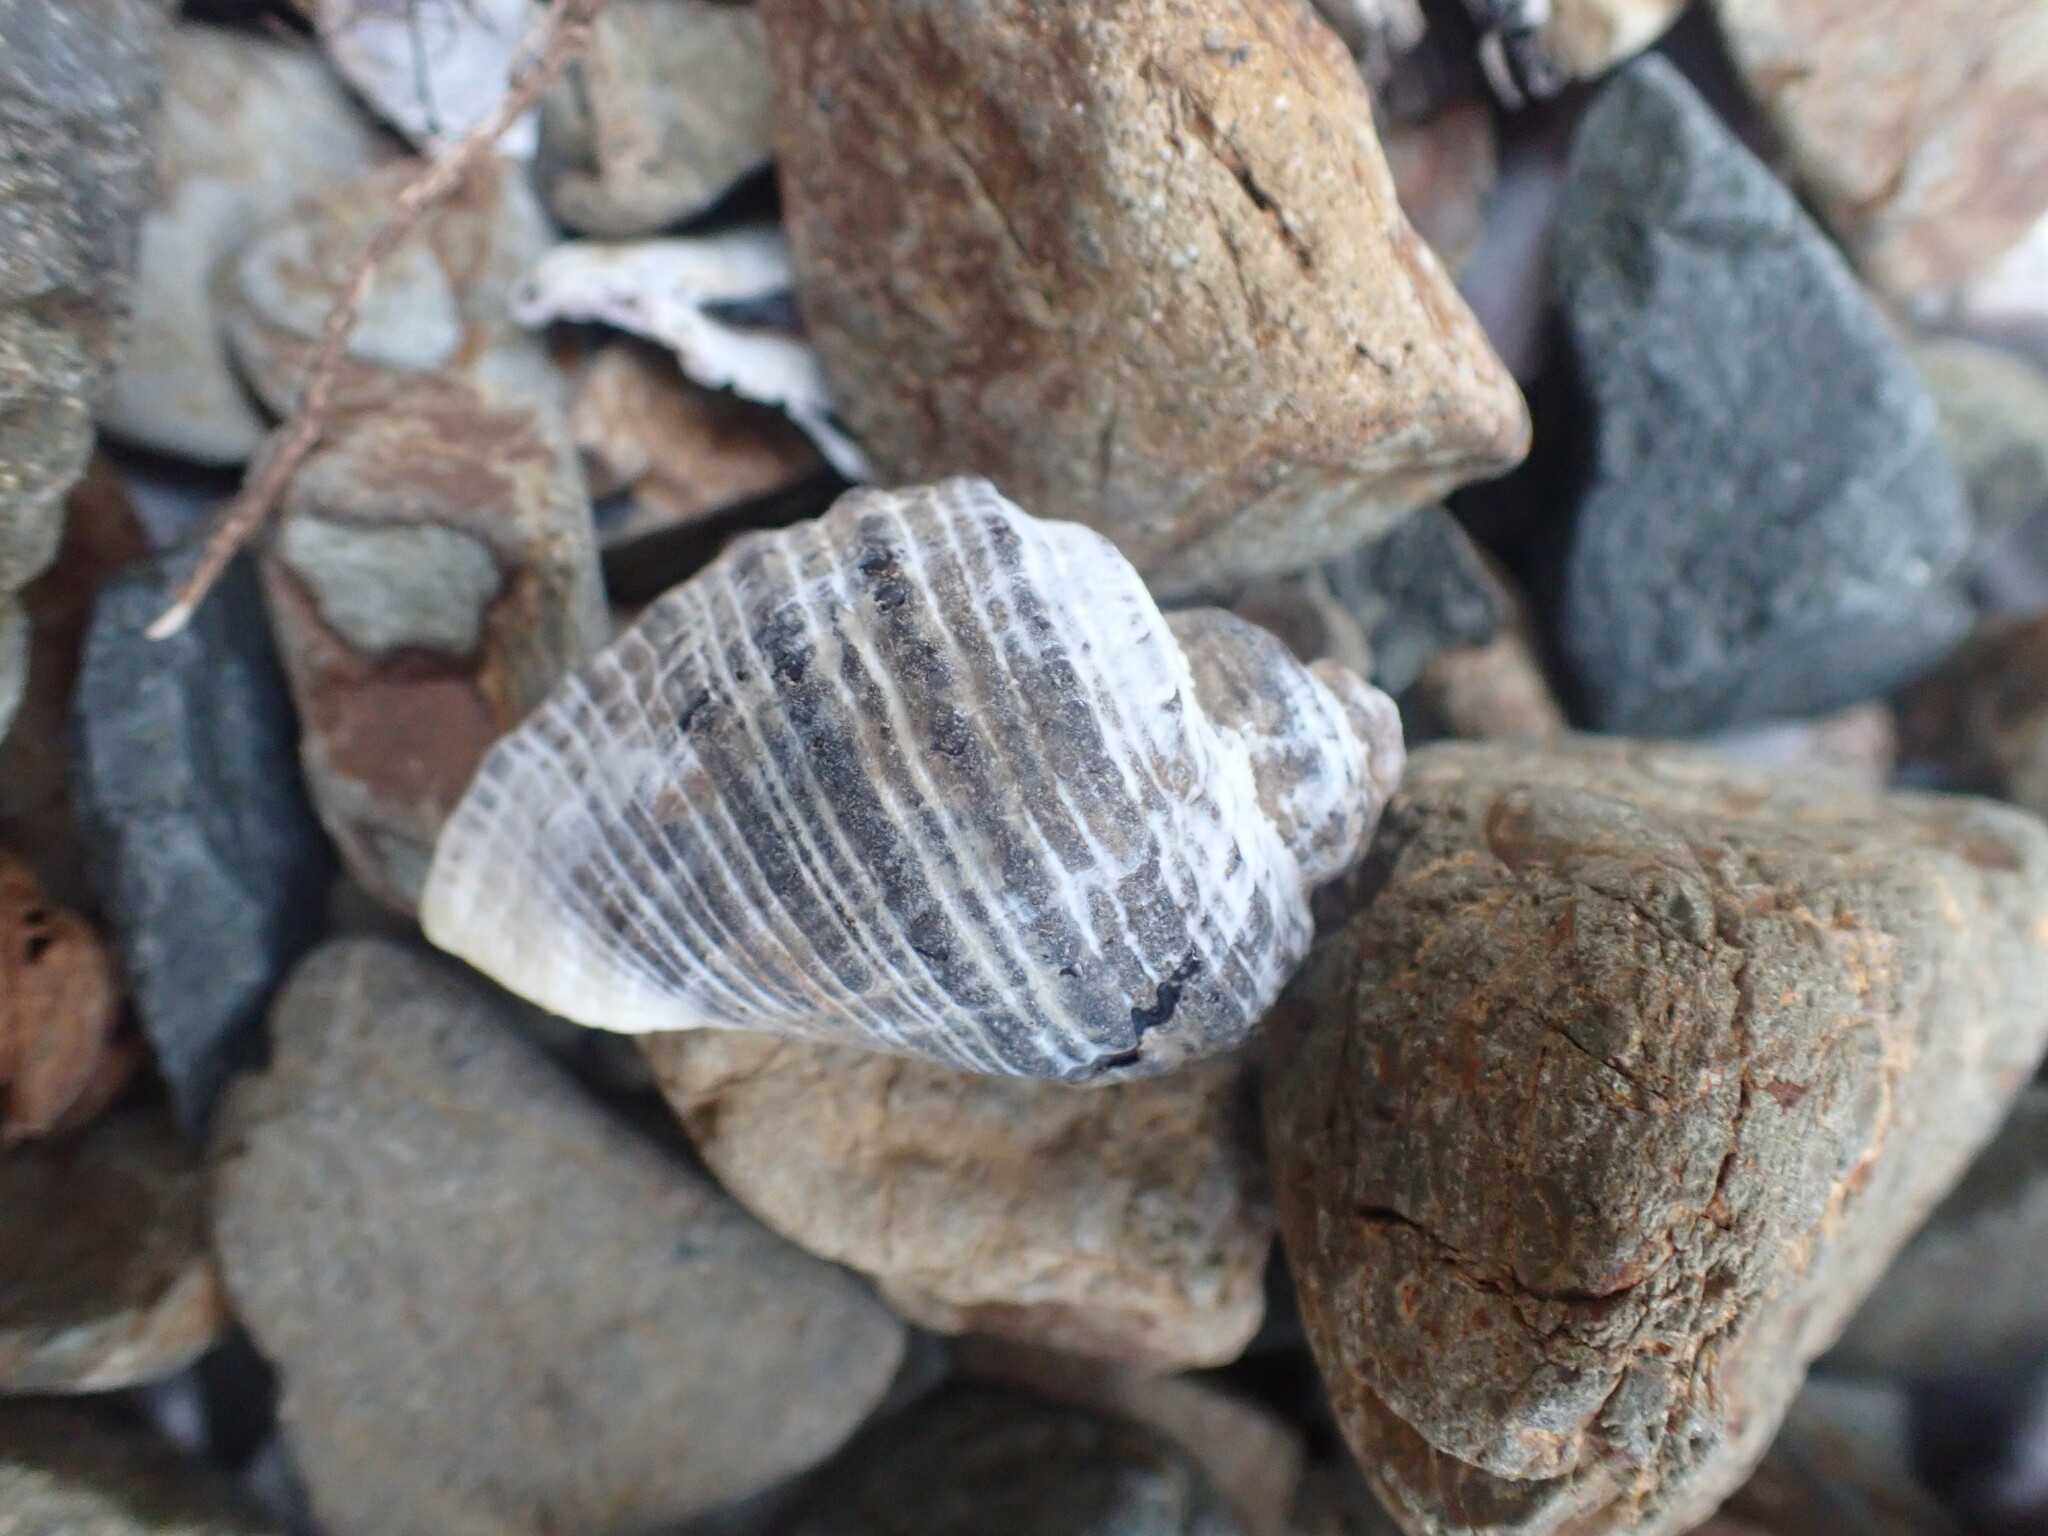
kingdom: Animalia
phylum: Mollusca
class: Gastropoda
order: Neogastropoda
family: Muricidae
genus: Haustrum
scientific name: Haustrum haustorium
